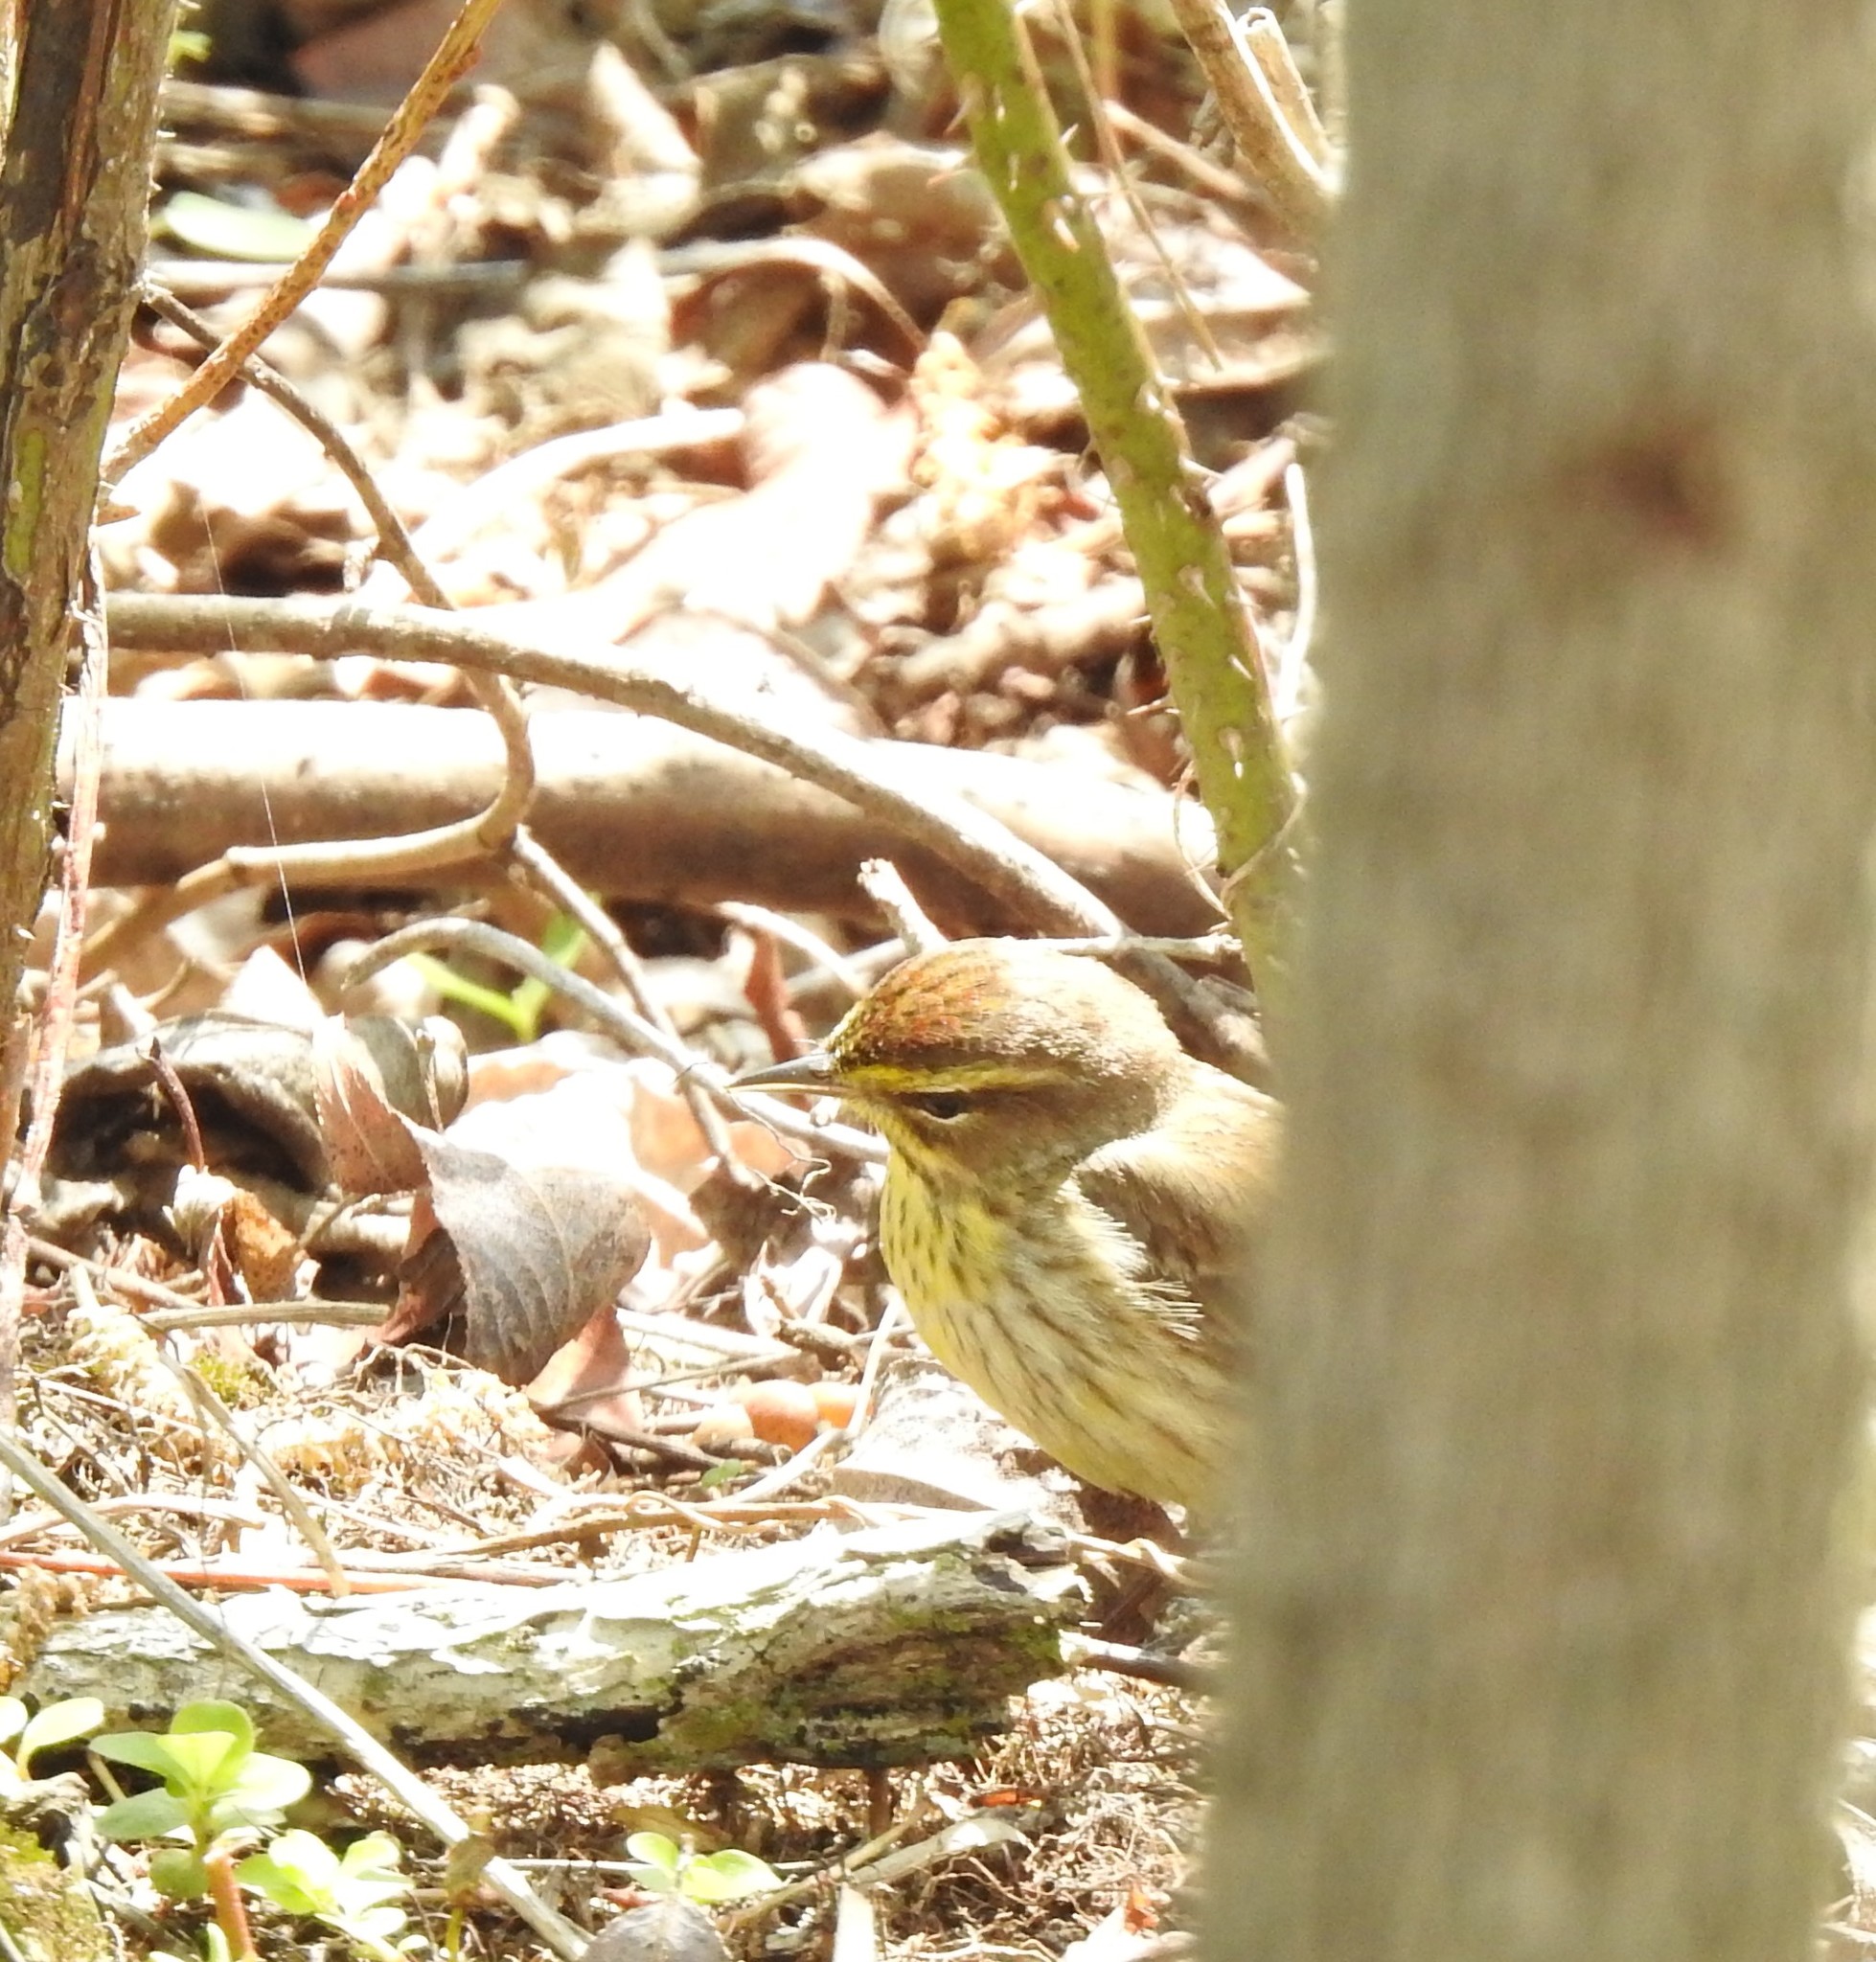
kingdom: Animalia
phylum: Chordata
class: Aves
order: Passeriformes
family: Parulidae
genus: Setophaga
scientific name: Setophaga palmarum
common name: Palm warbler
